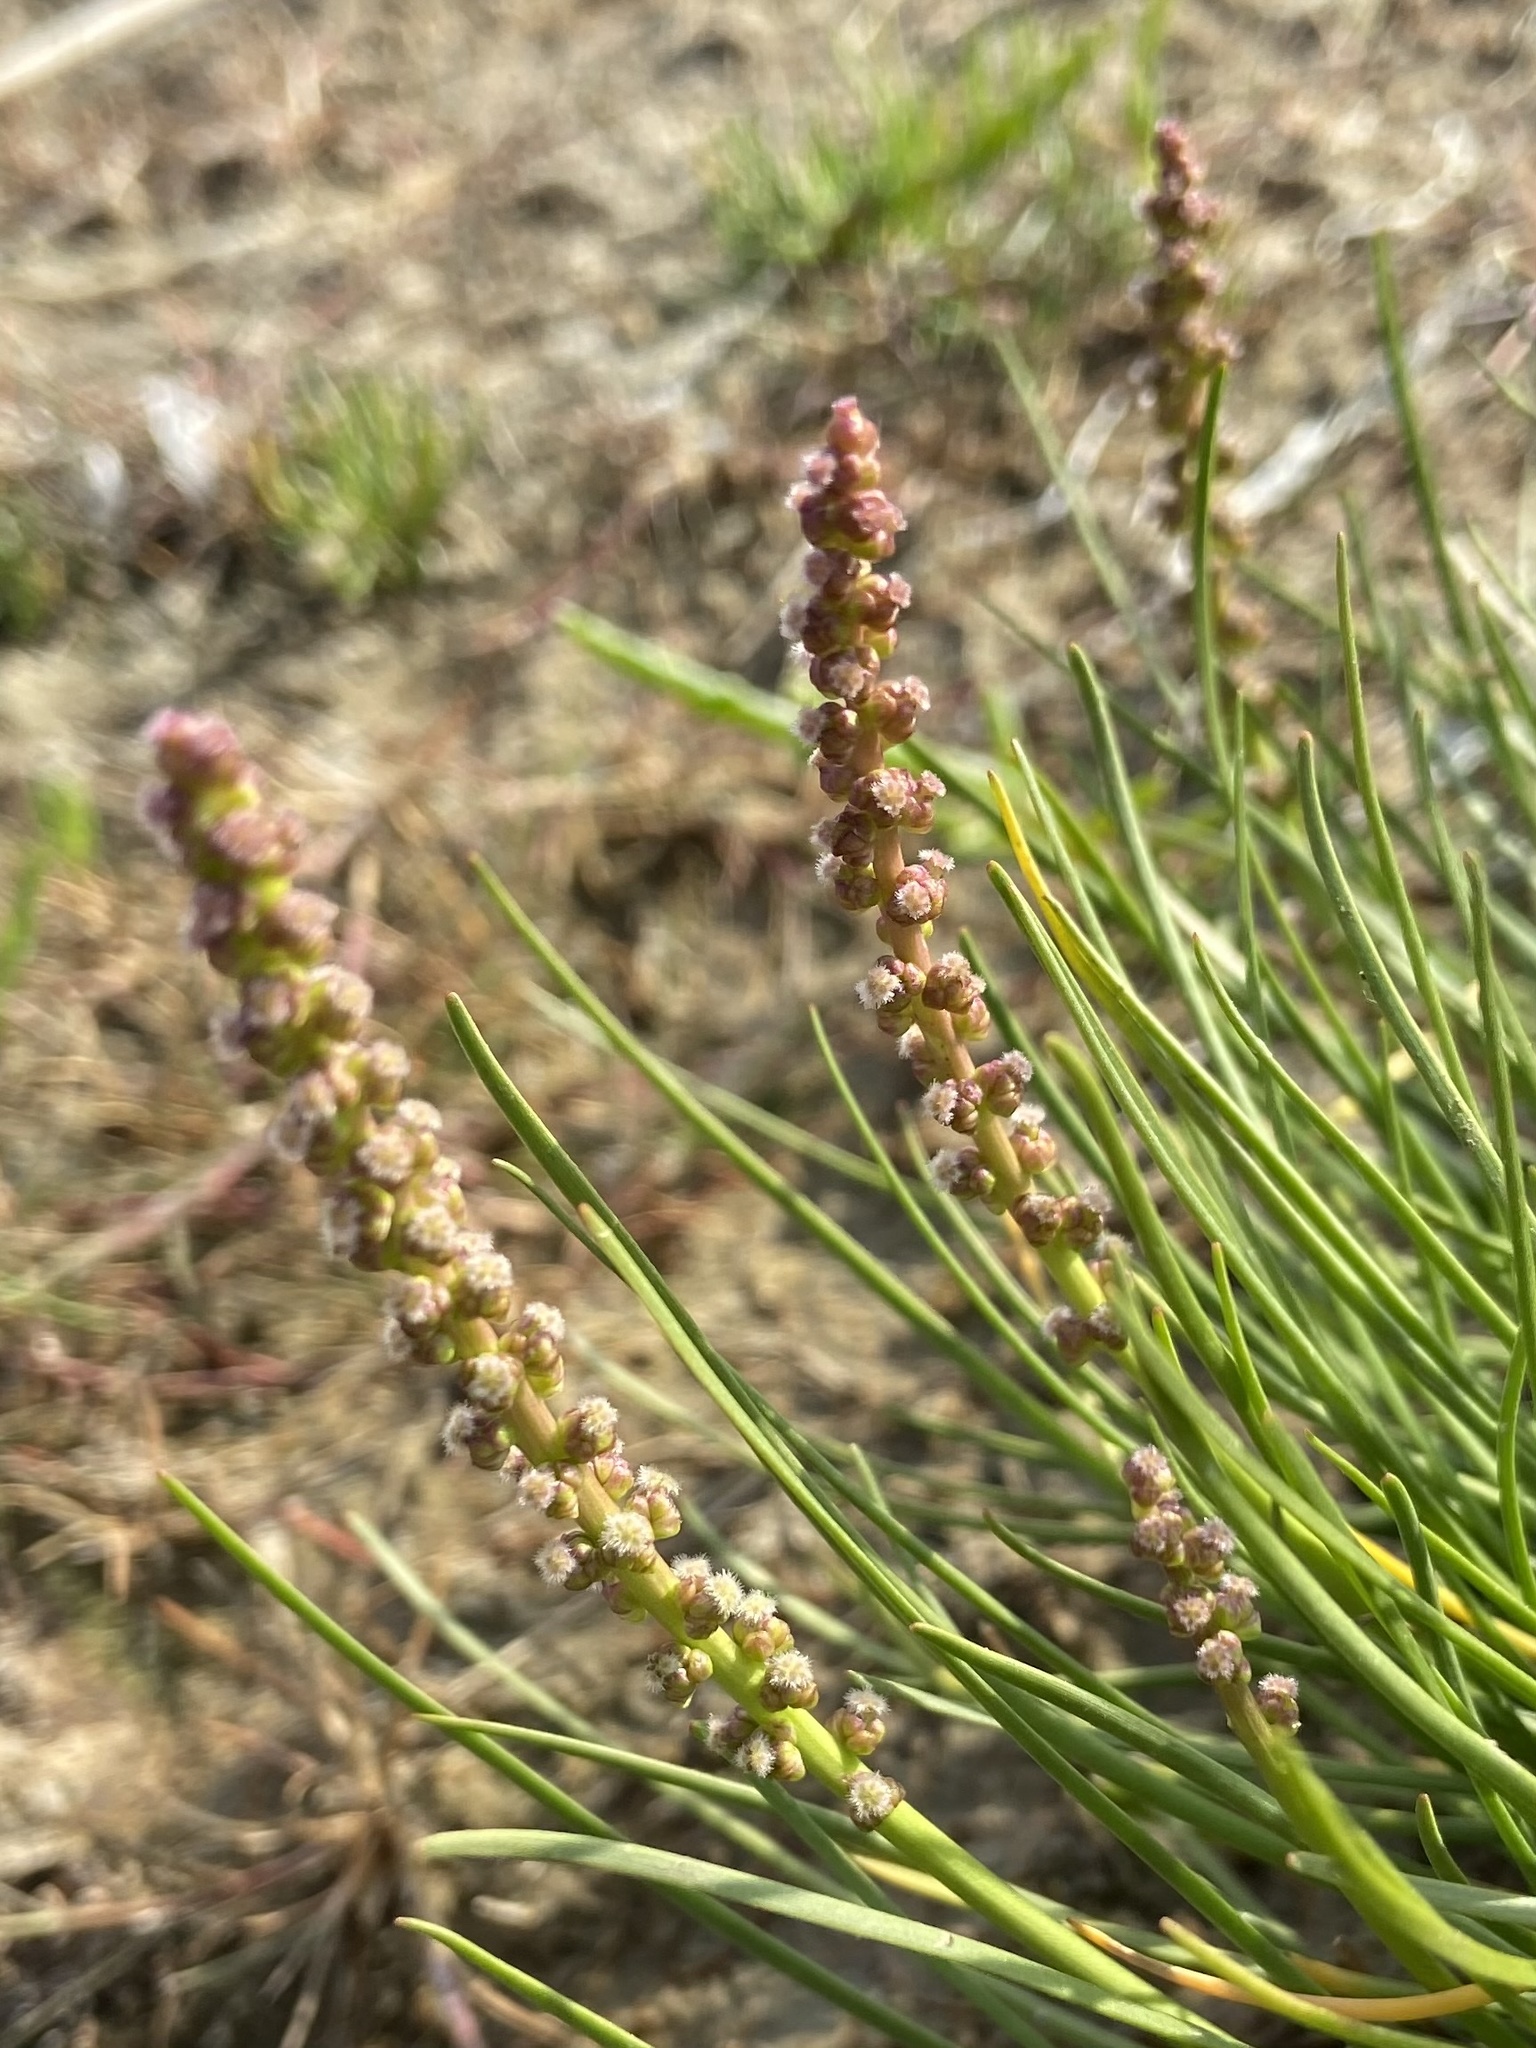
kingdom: Plantae
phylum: Tracheophyta
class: Liliopsida
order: Alismatales
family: Juncaginaceae
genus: Triglochin
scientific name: Triglochin maritima
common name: Sea arrowgrass
